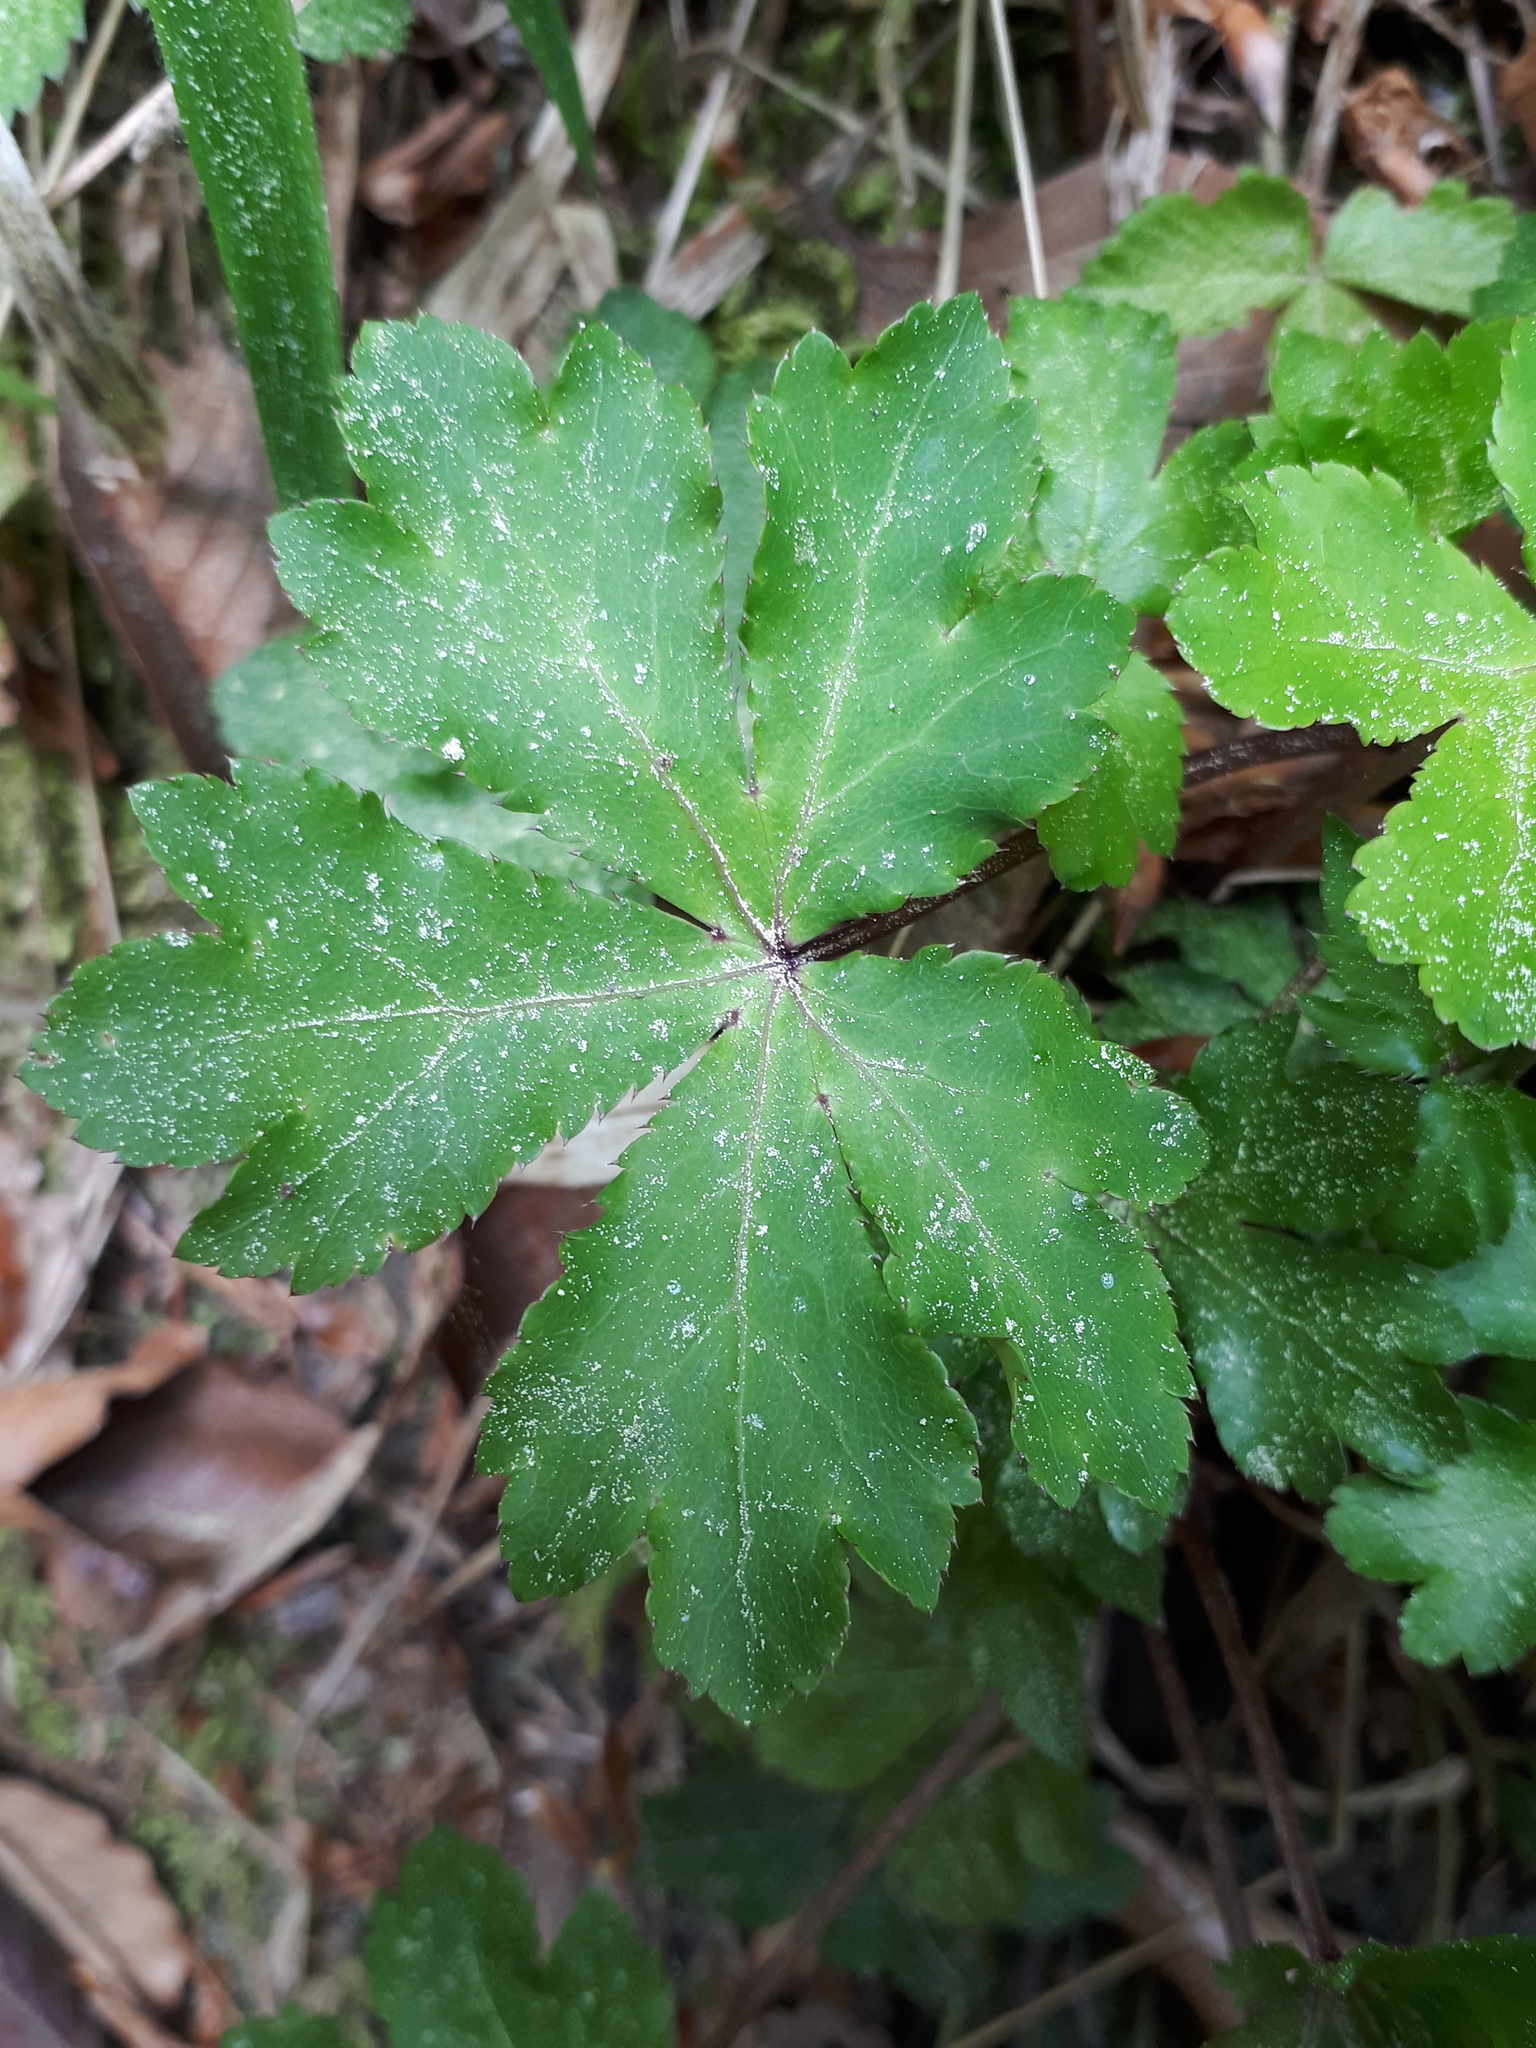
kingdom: Plantae
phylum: Tracheophyta
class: Magnoliopsida
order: Apiales
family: Apiaceae
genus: Sanicula
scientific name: Sanicula europaea
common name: Sanicle
